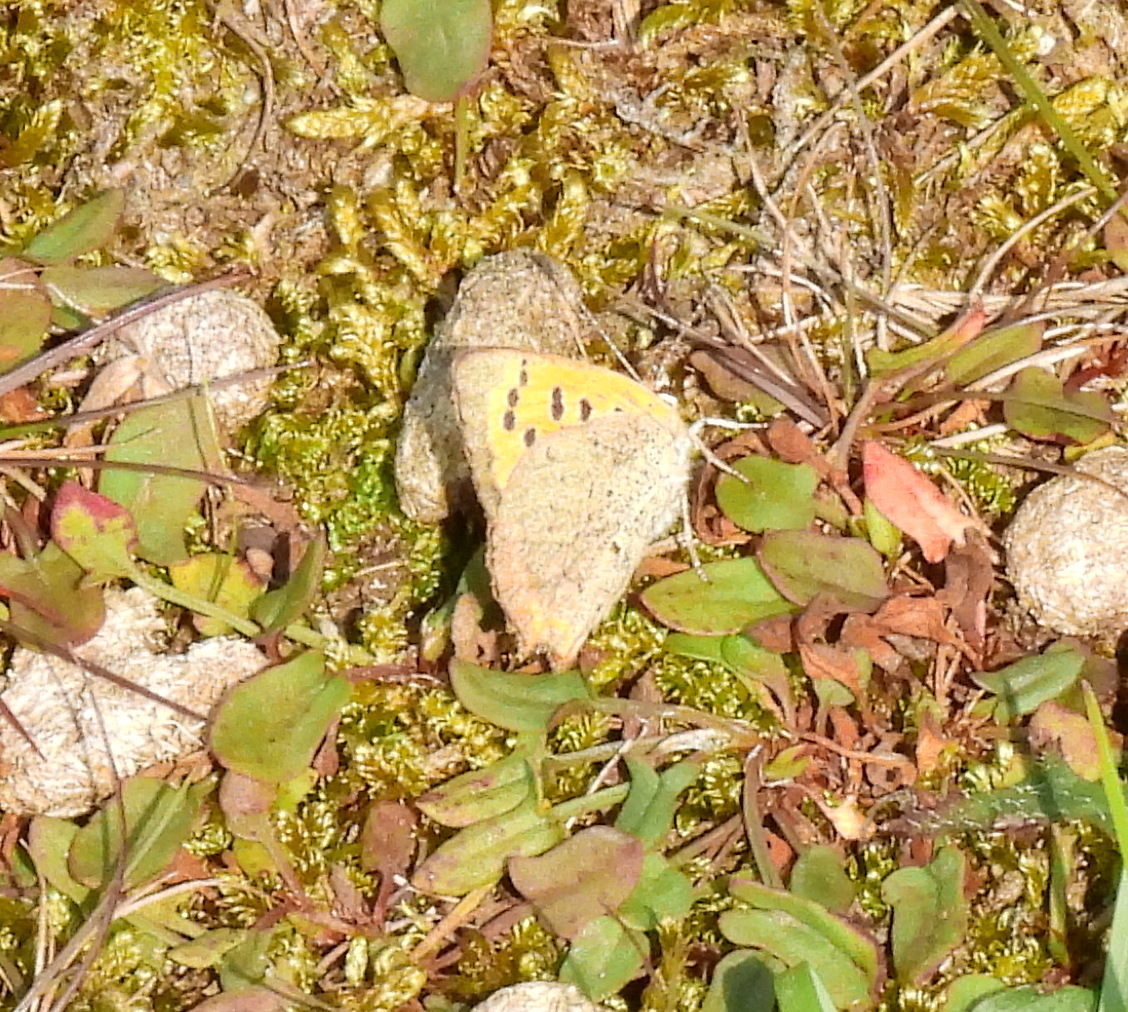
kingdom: Animalia
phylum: Arthropoda
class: Insecta
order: Lepidoptera
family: Lycaenidae
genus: Lycaena
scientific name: Lycaena phlaeas
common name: Small copper
